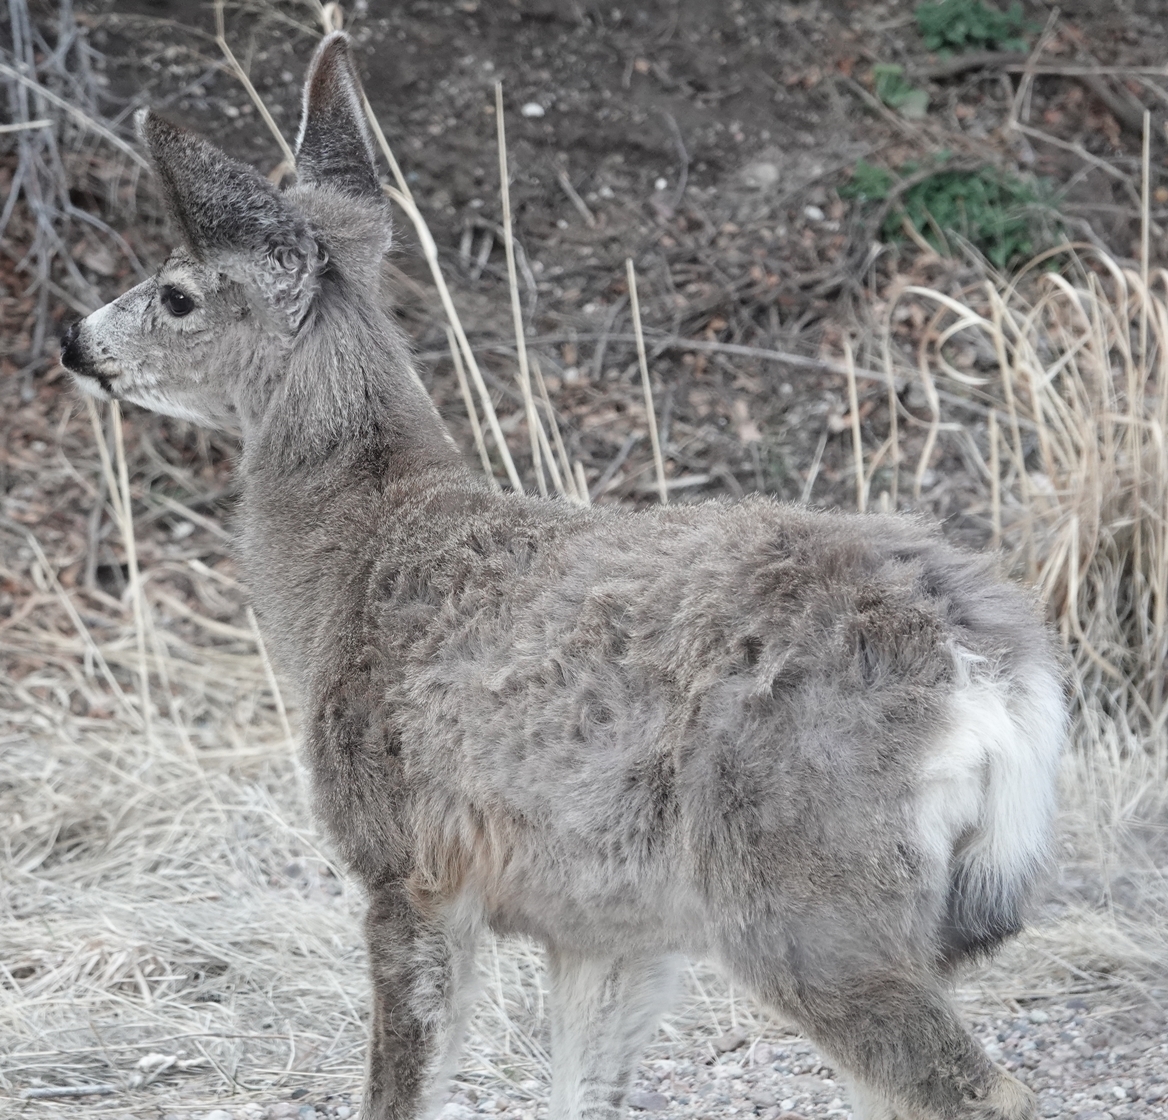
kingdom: Animalia
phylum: Chordata
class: Mammalia
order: Artiodactyla
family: Cervidae
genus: Odocoileus
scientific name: Odocoileus hemionus
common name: Mule deer
